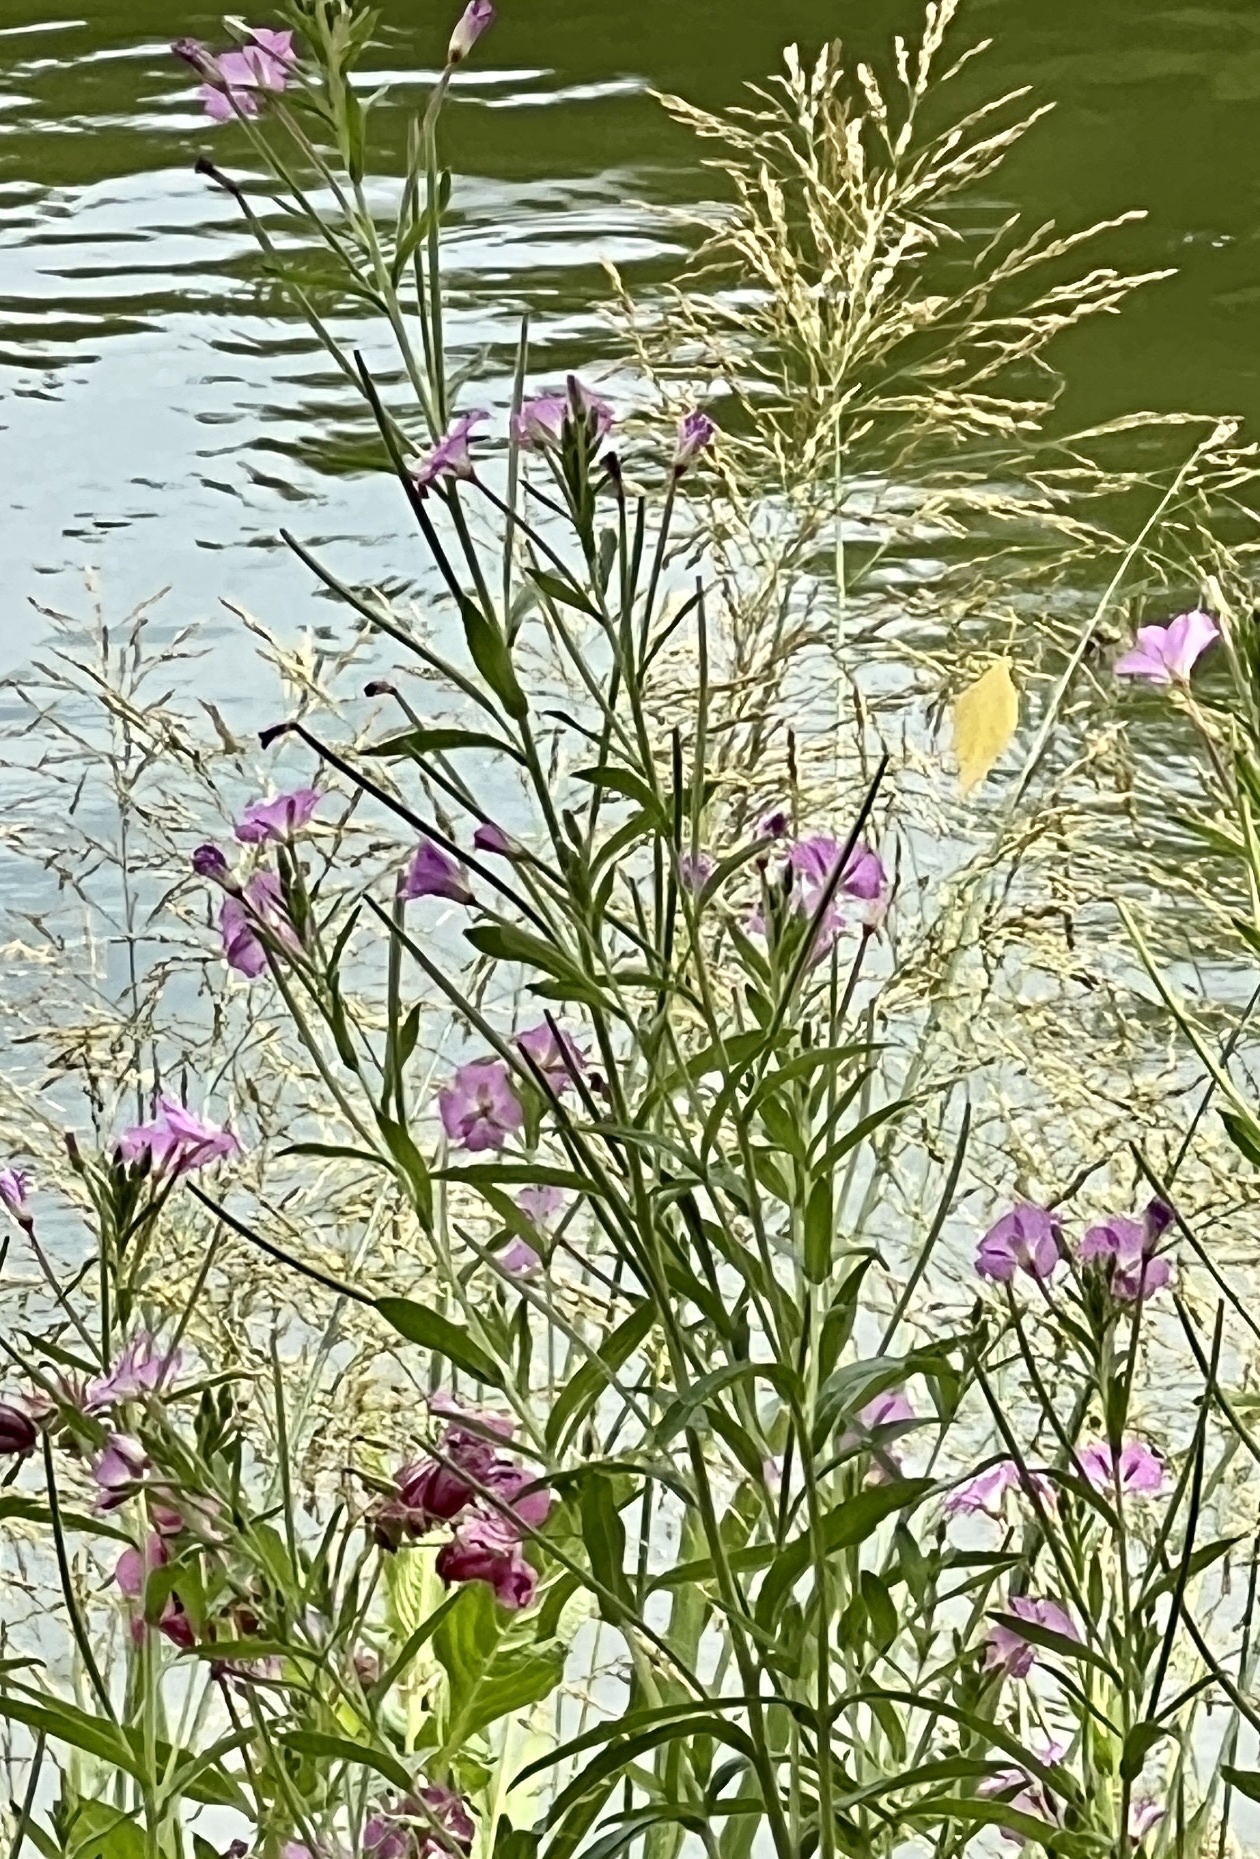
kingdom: Plantae
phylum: Tracheophyta
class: Magnoliopsida
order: Myrtales
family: Onagraceae
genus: Epilobium
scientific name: Epilobium hirsutum
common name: Great willowherb
